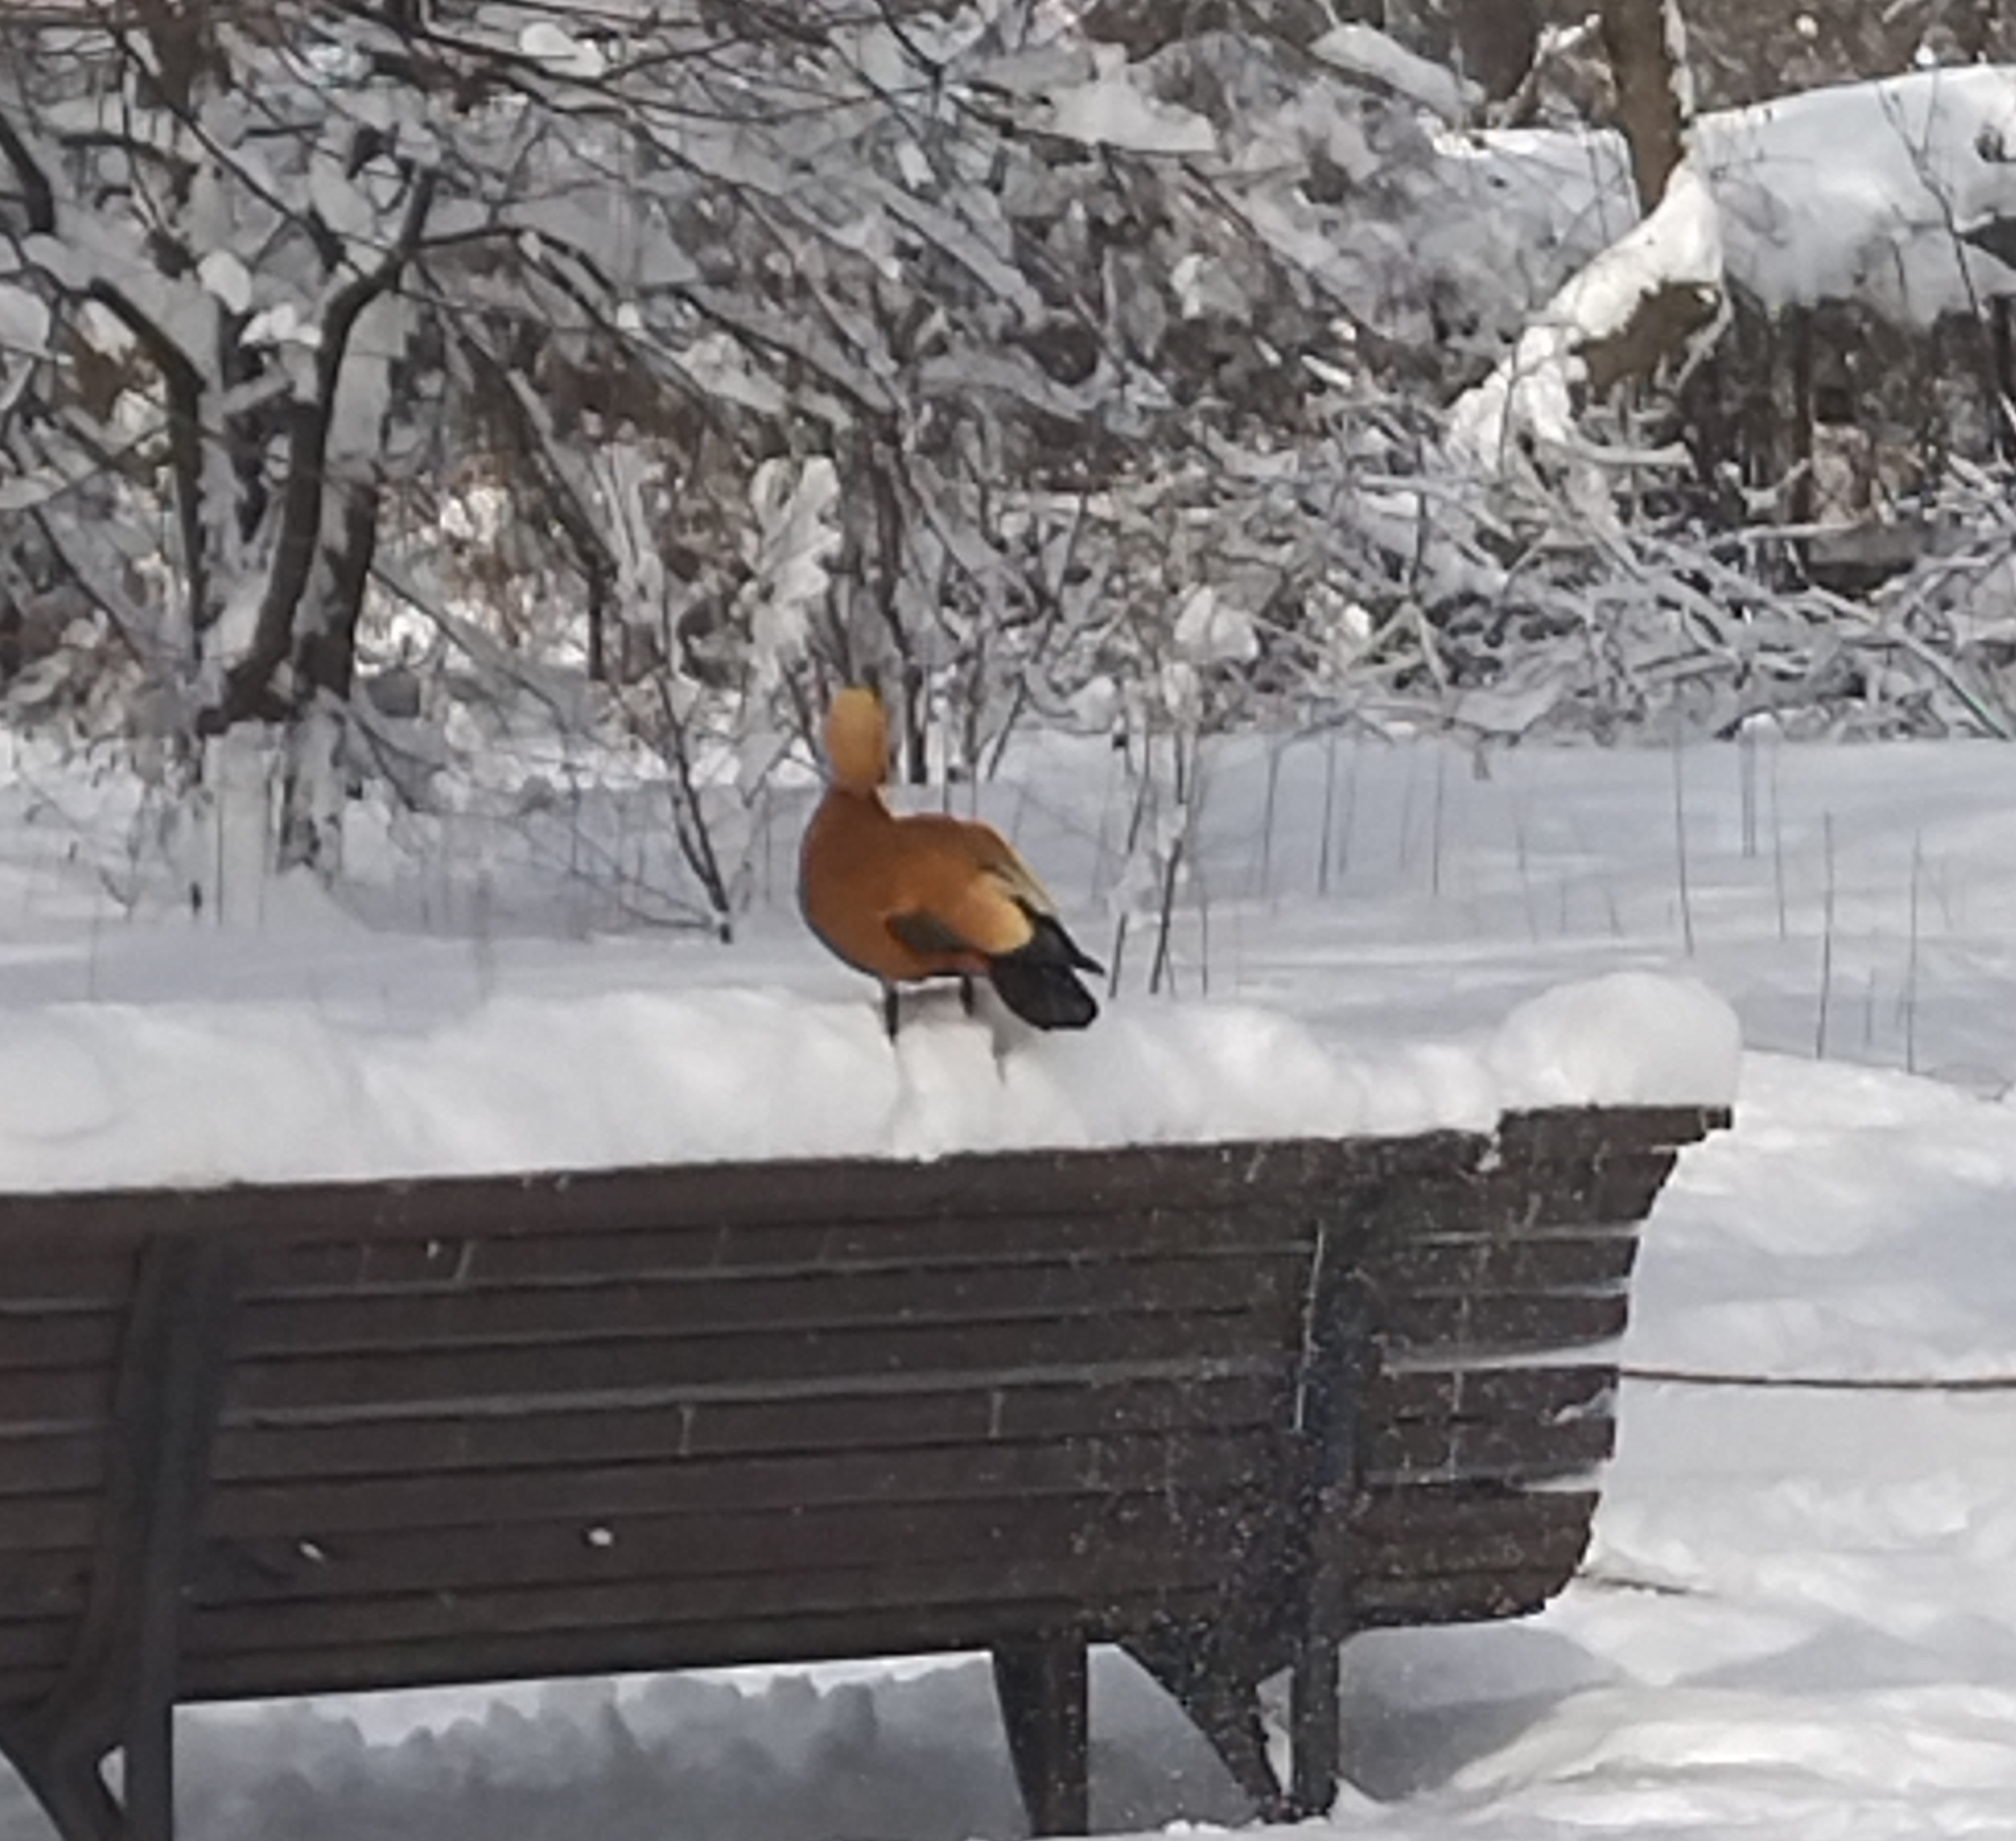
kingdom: Animalia
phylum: Chordata
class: Aves
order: Anseriformes
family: Anatidae
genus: Tadorna
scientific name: Tadorna ferruginea
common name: Ruddy shelduck
